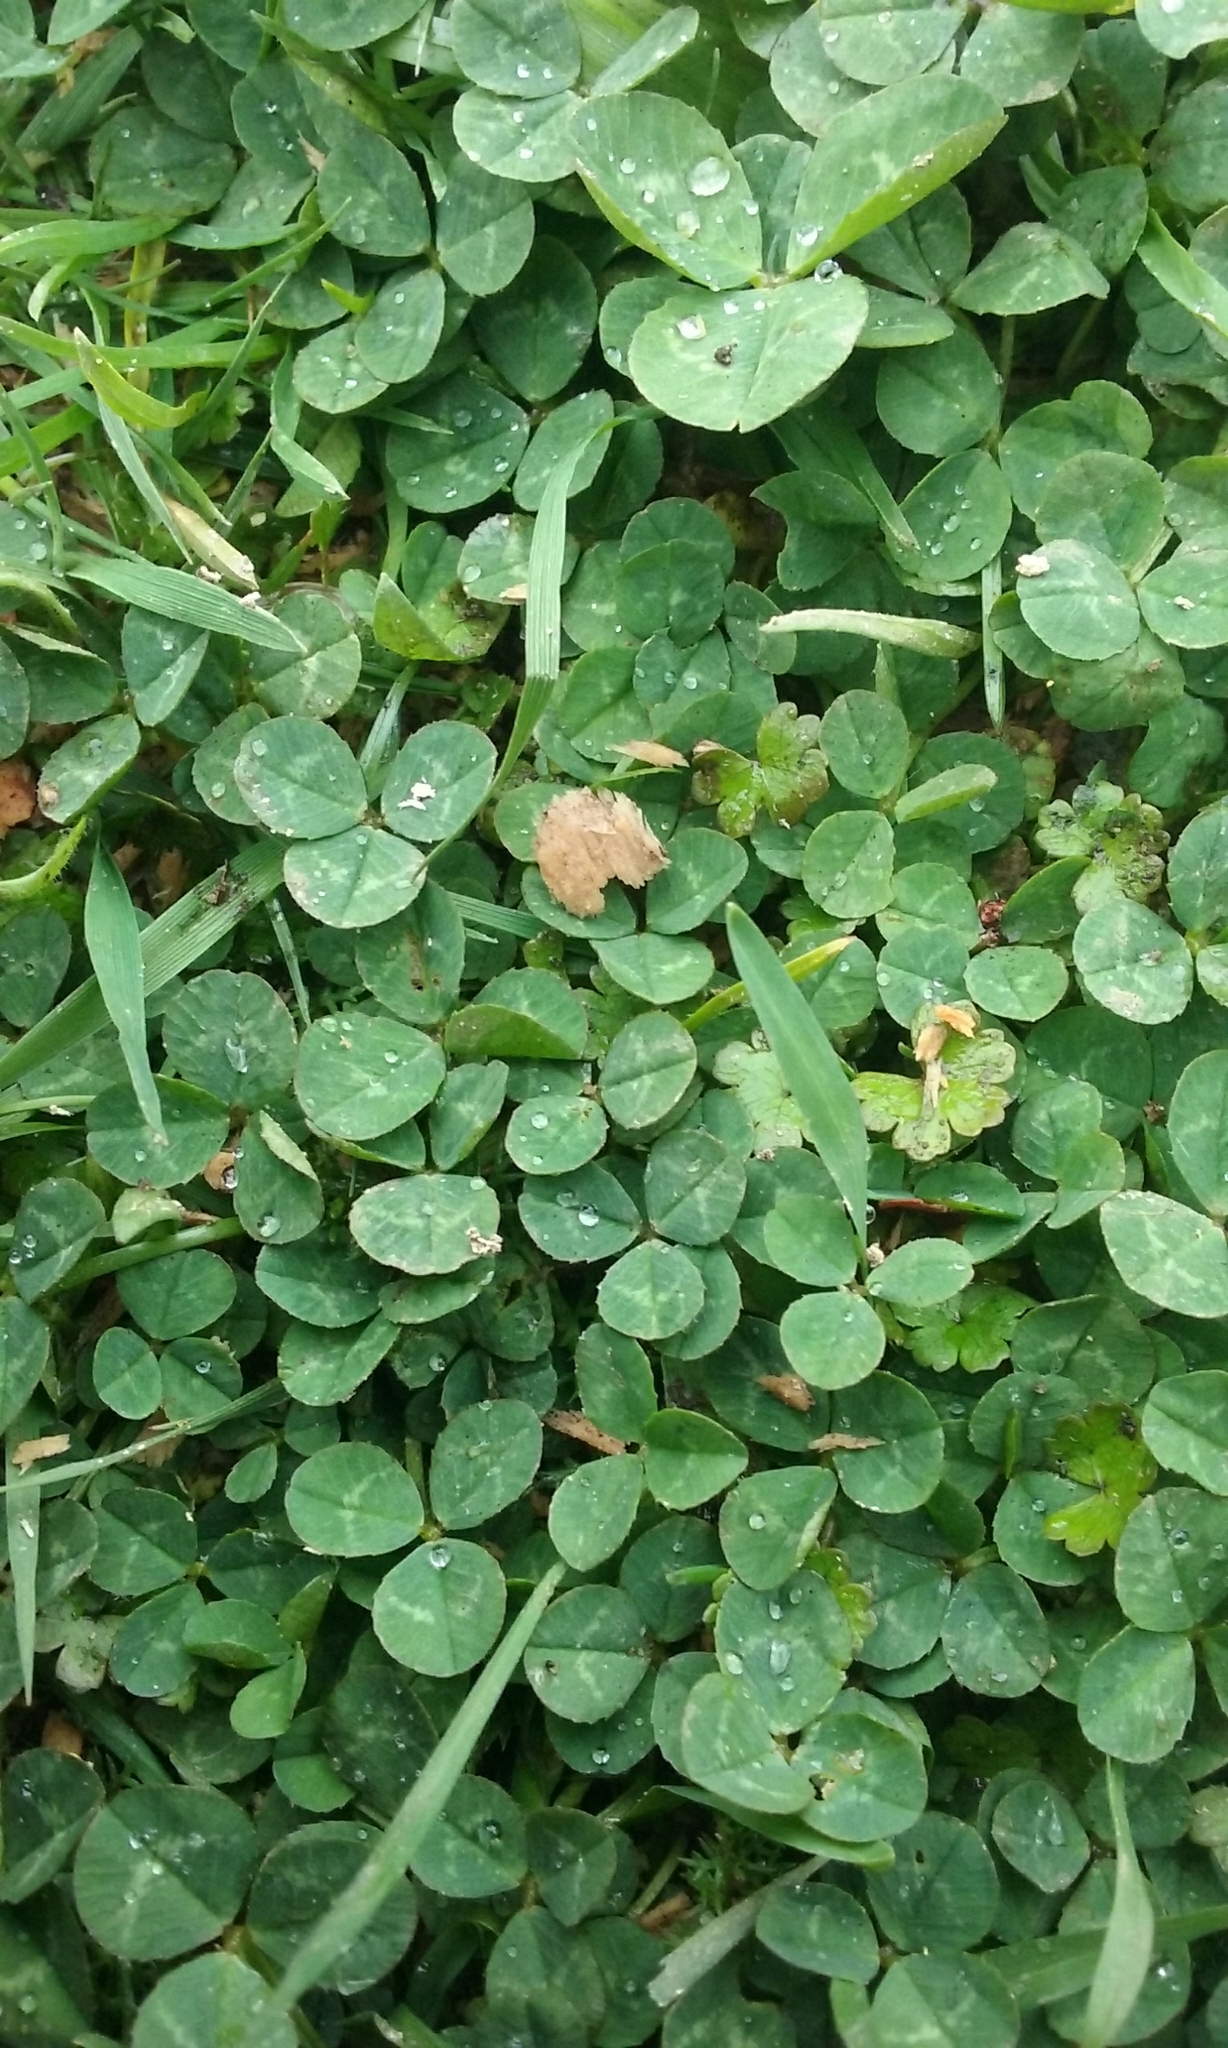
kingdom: Plantae
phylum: Tracheophyta
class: Magnoliopsida
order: Fabales
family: Fabaceae
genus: Trifolium
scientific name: Trifolium repens
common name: White clover
